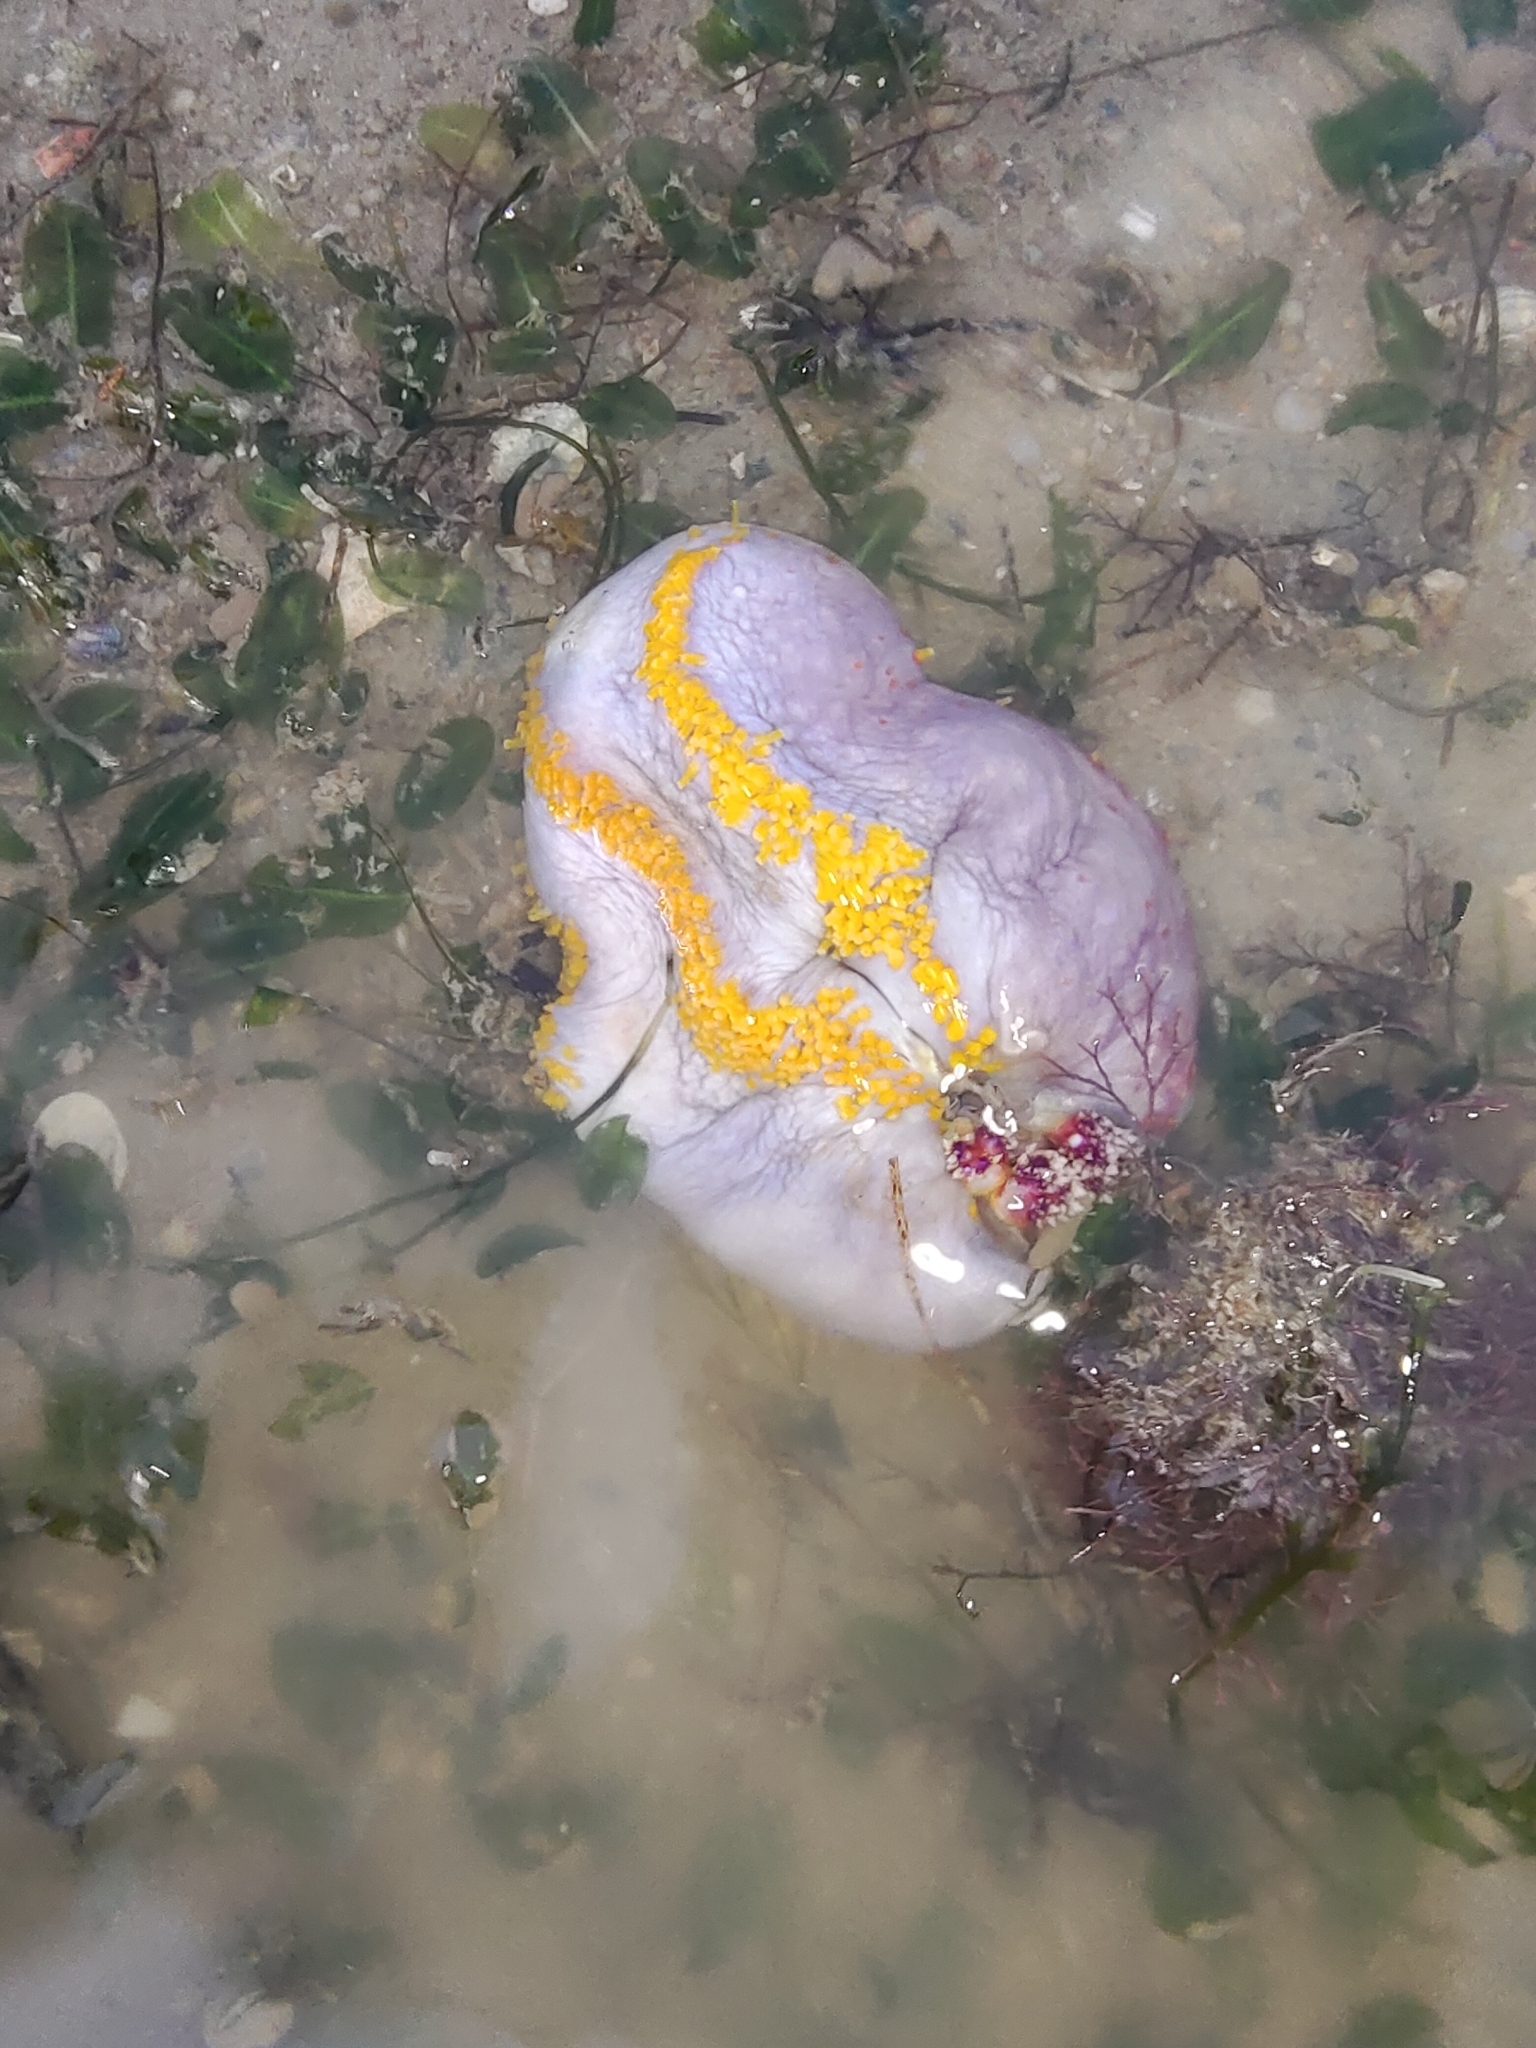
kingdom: Animalia
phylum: Echinodermata
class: Holothuroidea
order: Dendrochirotida
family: Cucumariidae
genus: Pseudocolochirus
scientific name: Pseudocolochirus violaceus
